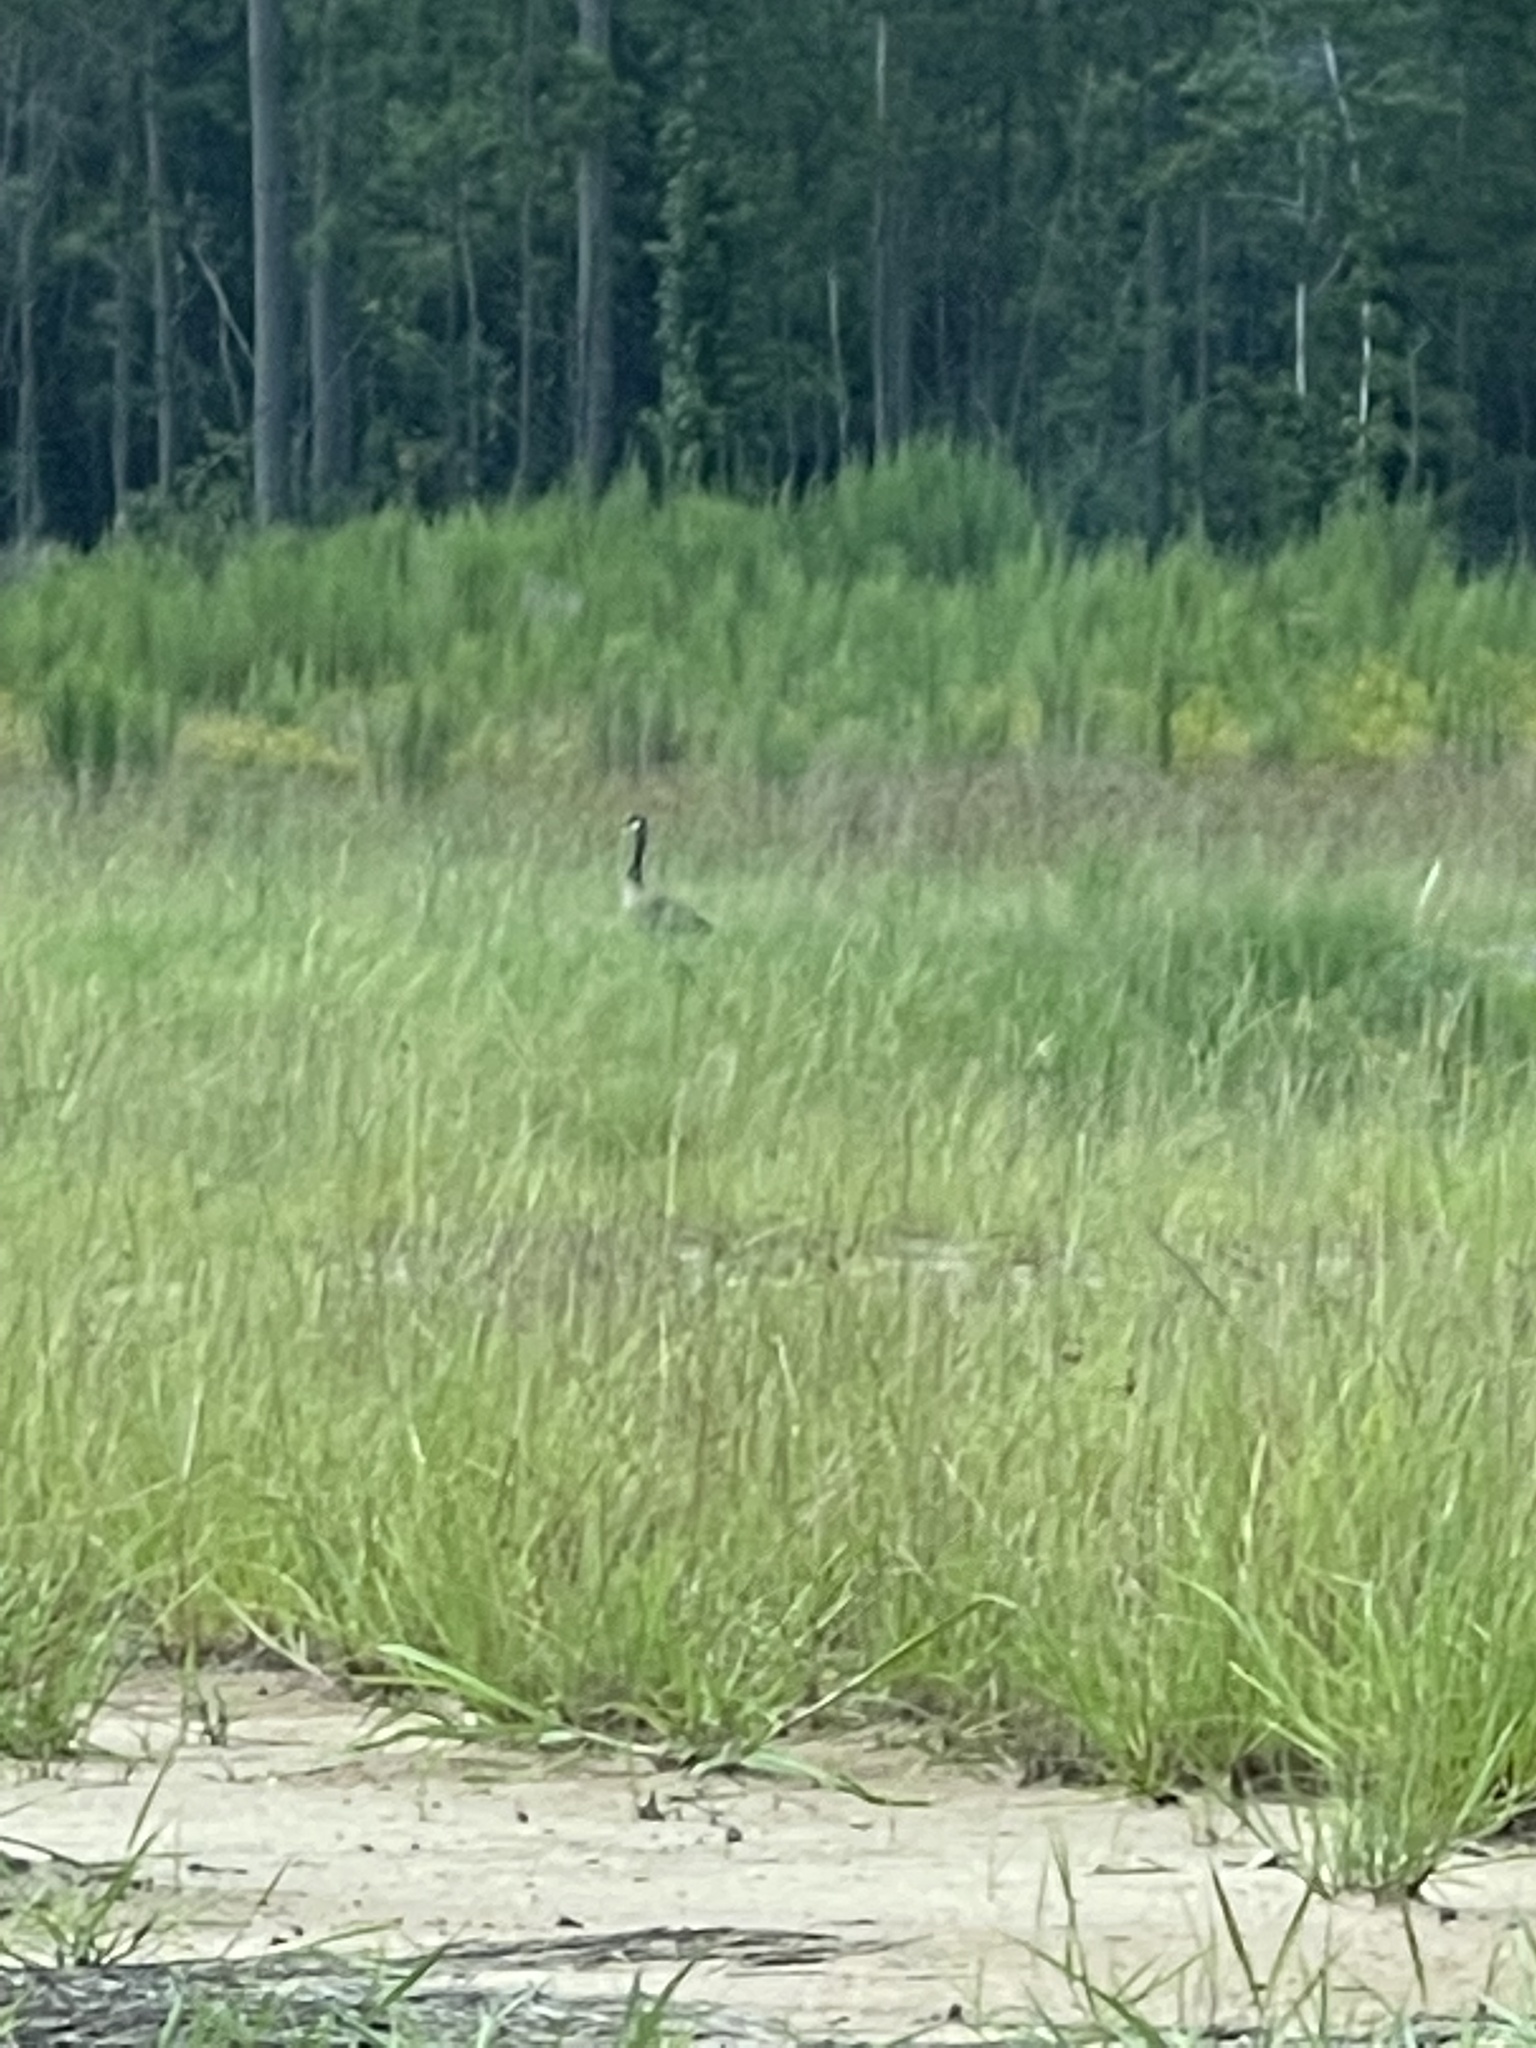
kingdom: Animalia
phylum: Chordata
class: Aves
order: Anseriformes
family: Anatidae
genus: Branta
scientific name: Branta canadensis
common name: Canada goose
